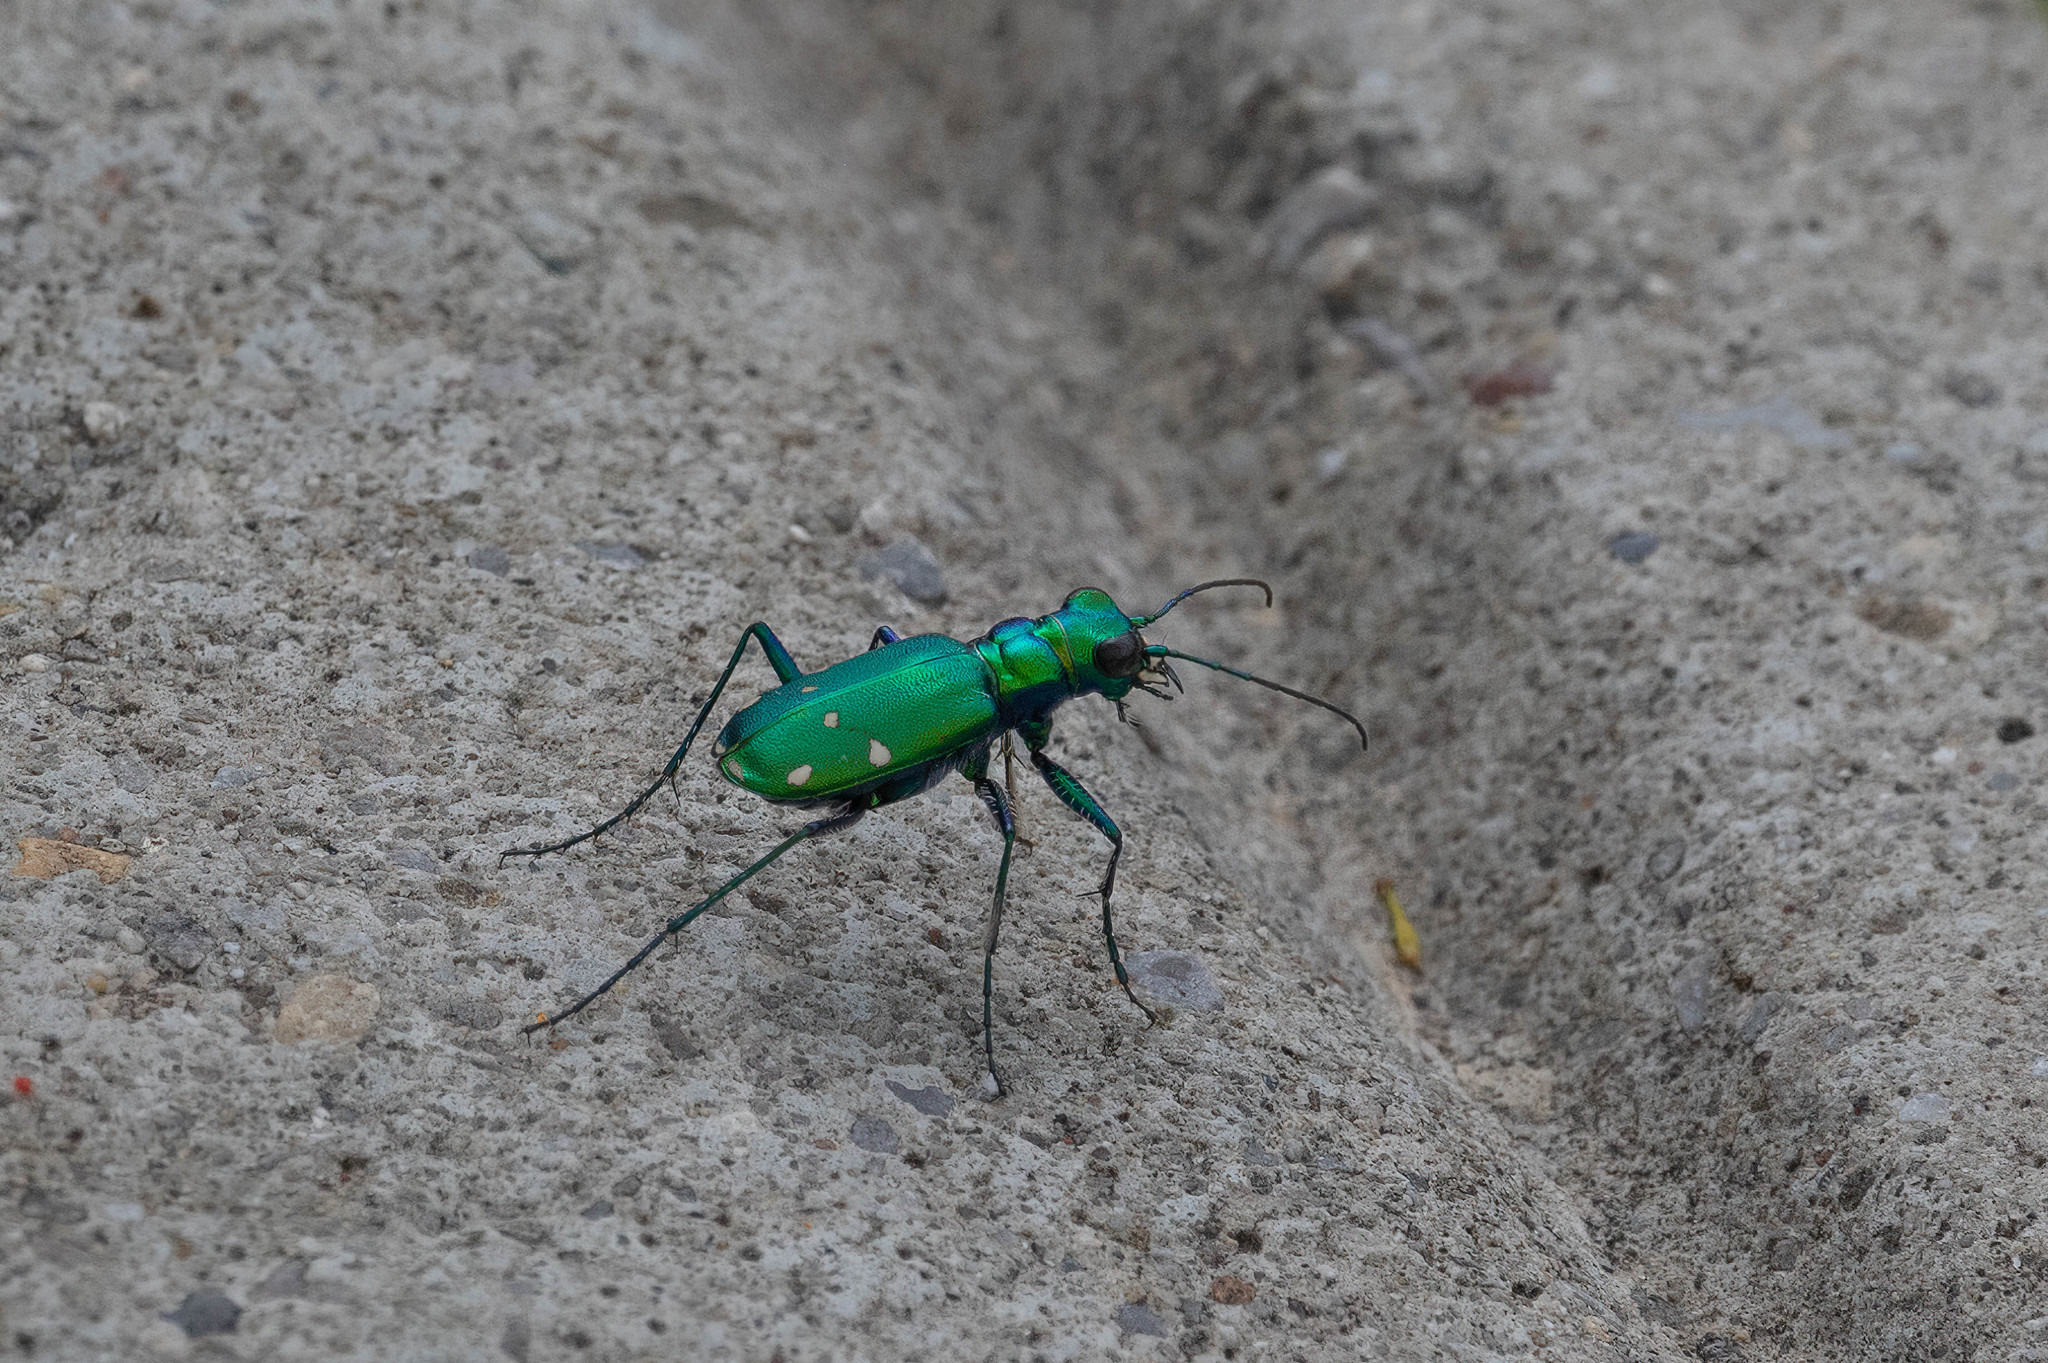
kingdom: Animalia
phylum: Arthropoda
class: Insecta
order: Coleoptera
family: Carabidae
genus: Cicindela
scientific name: Cicindela sexguttata
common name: Six-spotted tiger beetle
